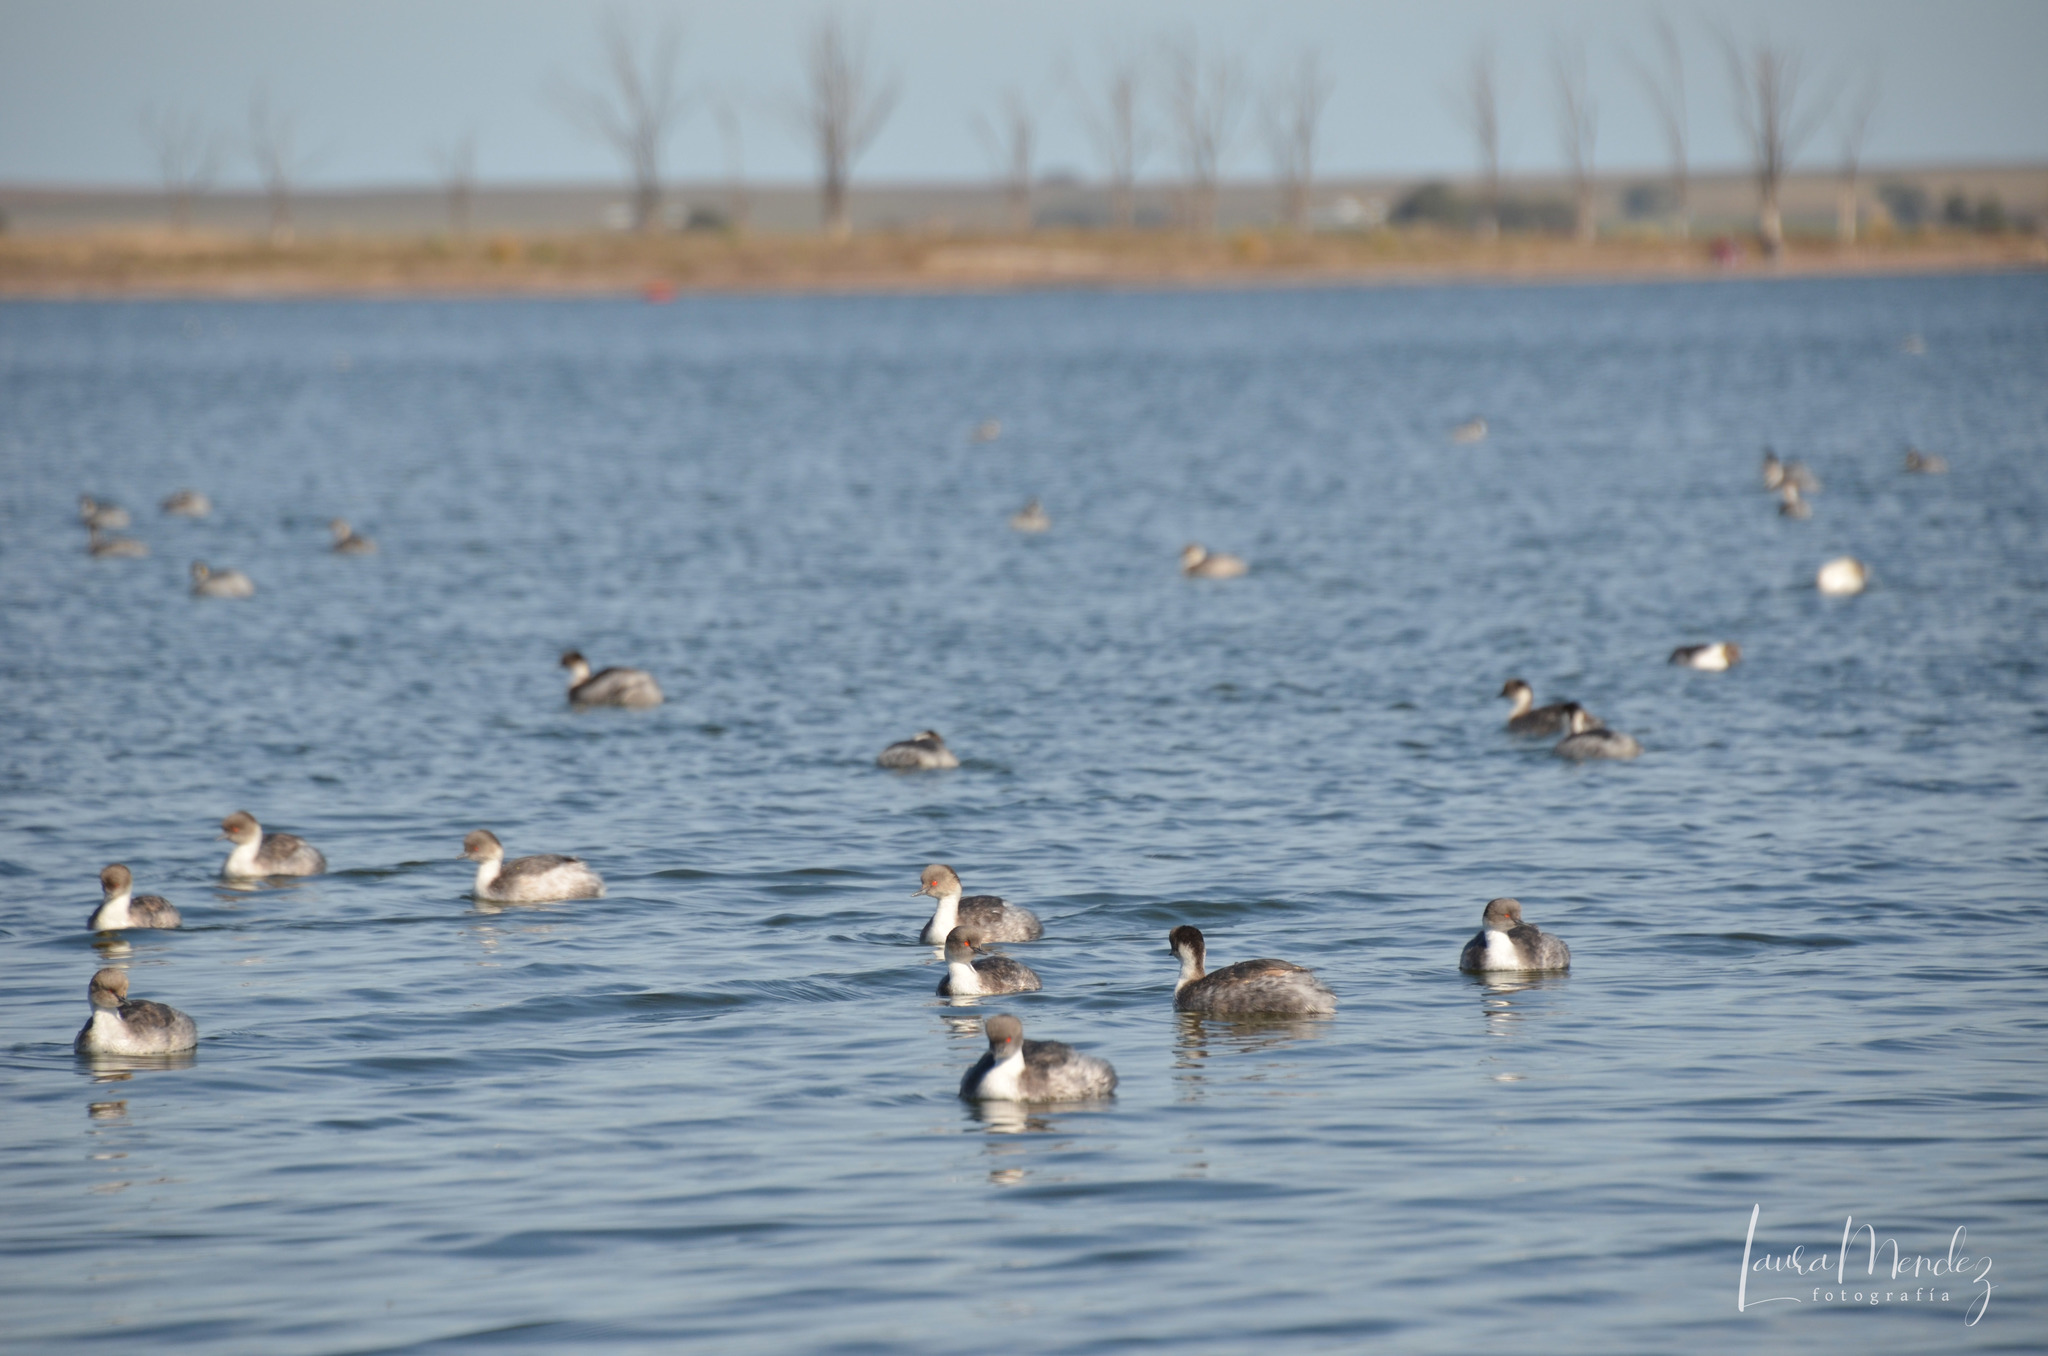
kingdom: Animalia
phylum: Chordata
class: Aves
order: Podicipediformes
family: Podicipedidae
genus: Podiceps
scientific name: Podiceps occipitalis
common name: Silvery grebe
